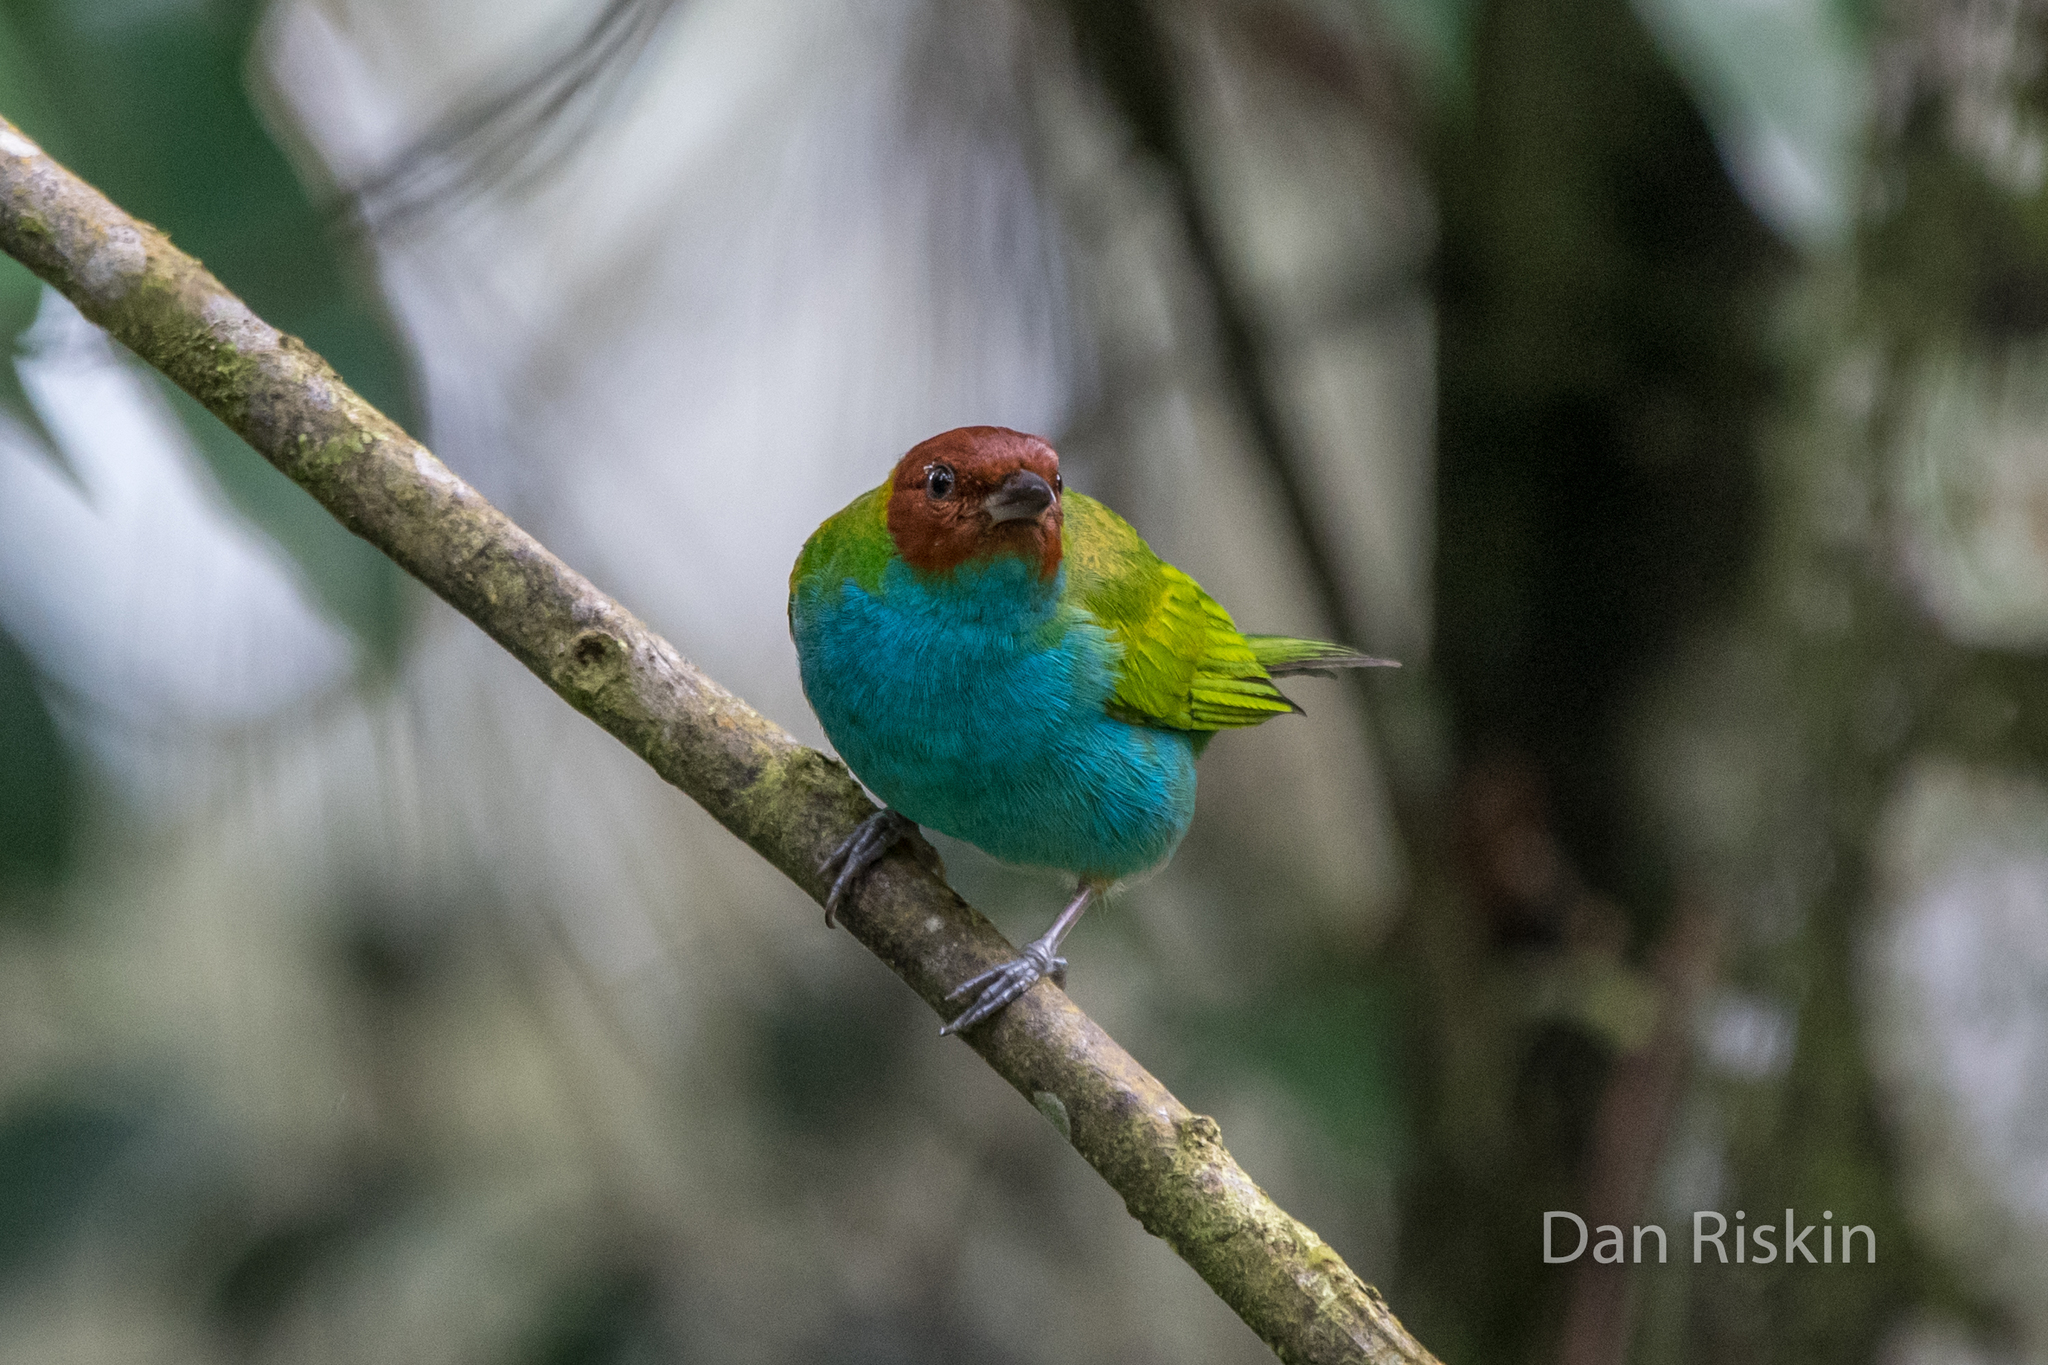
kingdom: Animalia
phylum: Chordata
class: Aves
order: Passeriformes
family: Thraupidae
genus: Tangara
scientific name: Tangara gyrola
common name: Bay-headed tanager
